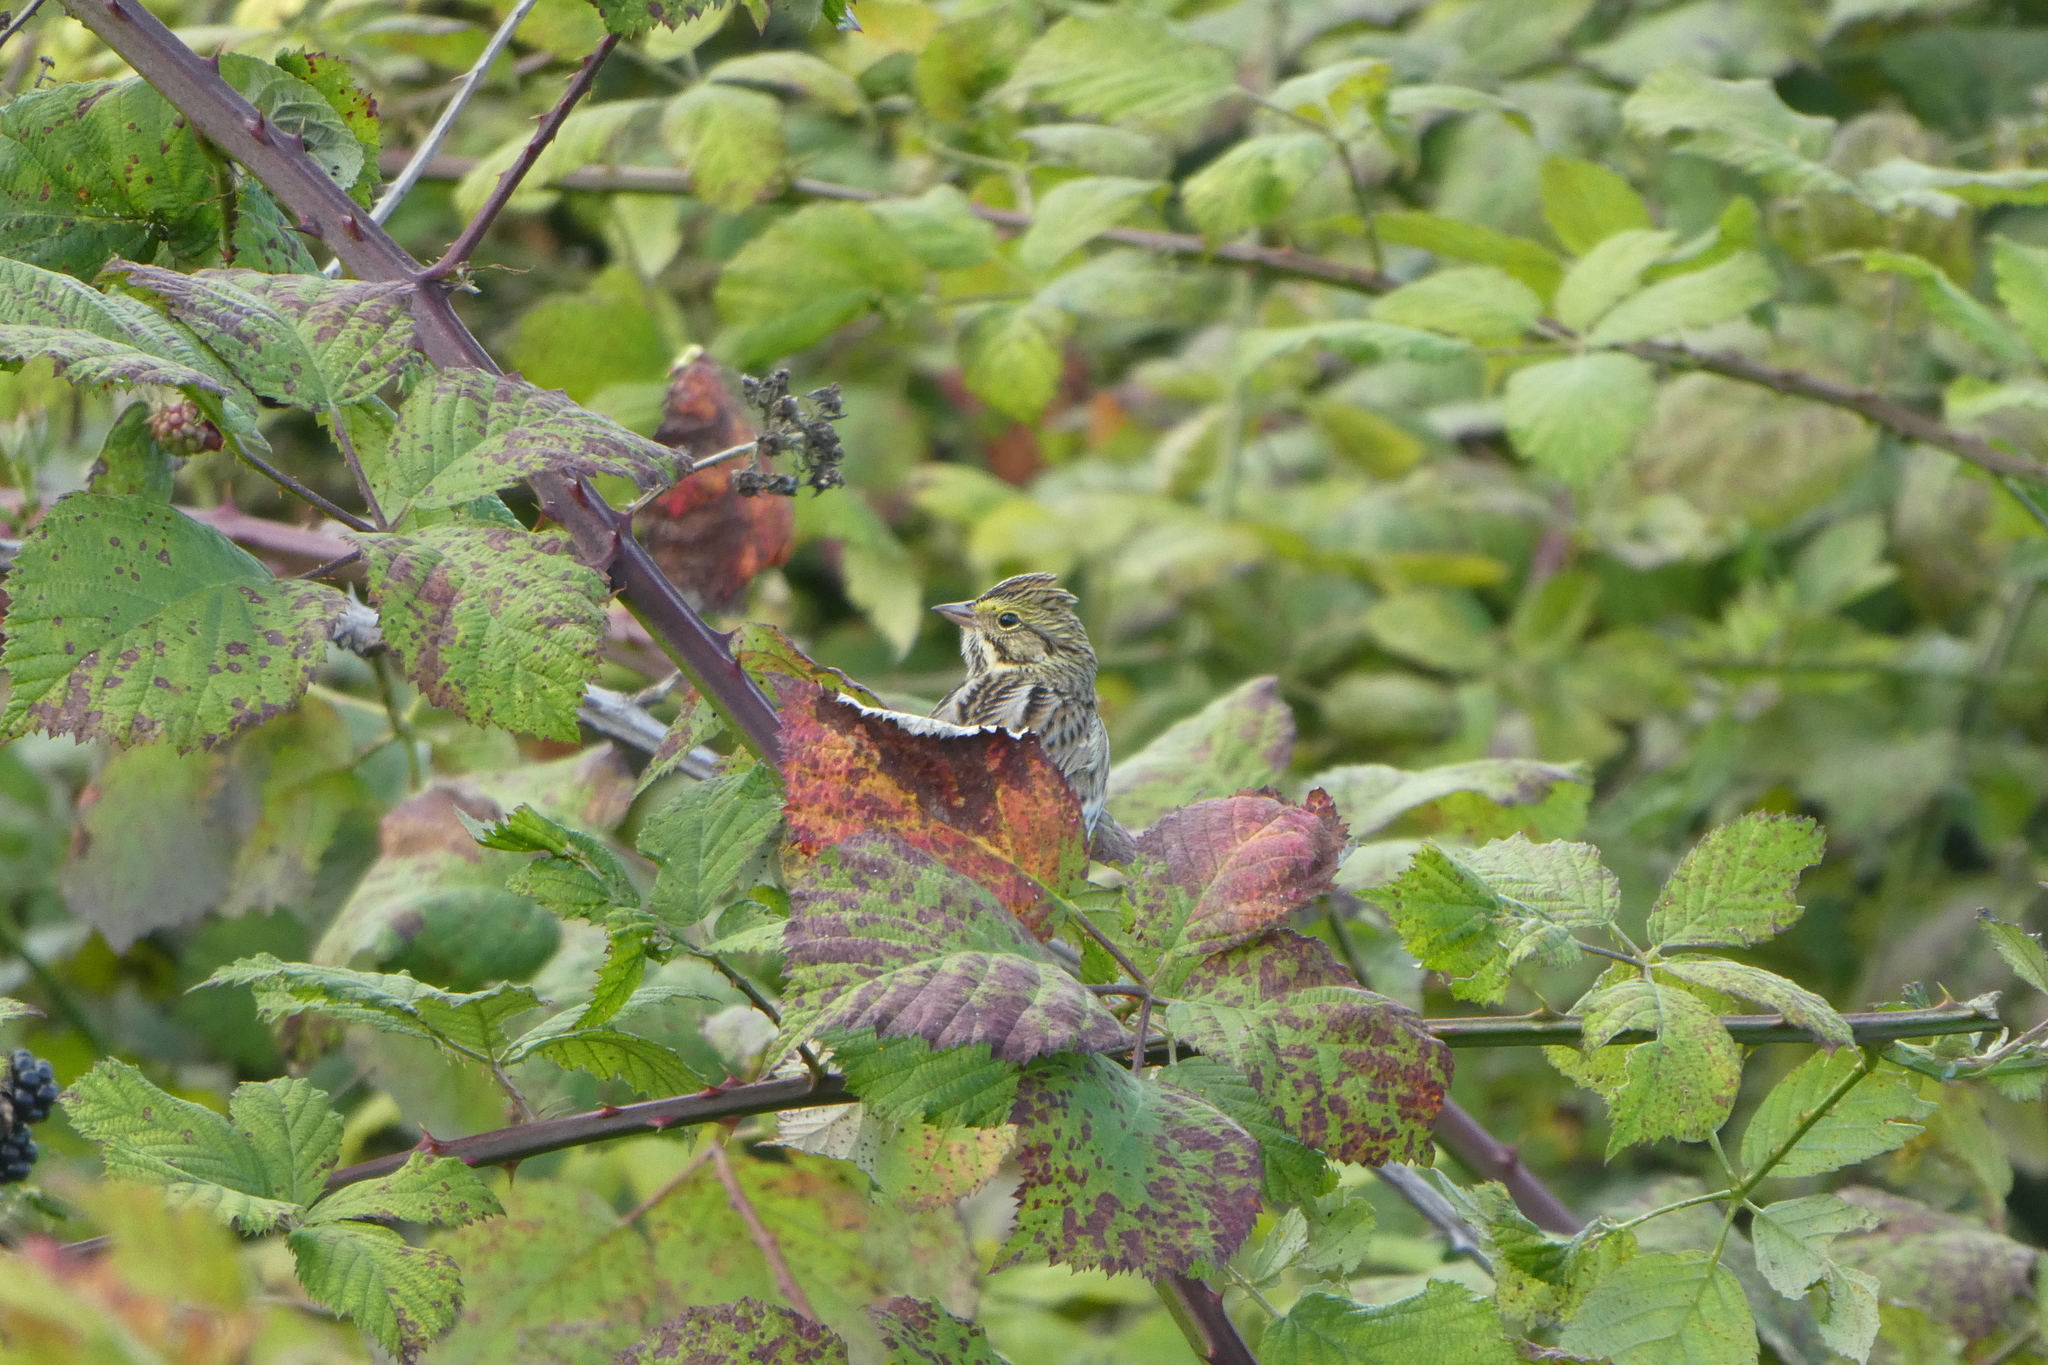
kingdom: Animalia
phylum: Chordata
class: Aves
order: Passeriformes
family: Passerellidae
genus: Passerculus
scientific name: Passerculus sandwichensis
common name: Savannah sparrow
